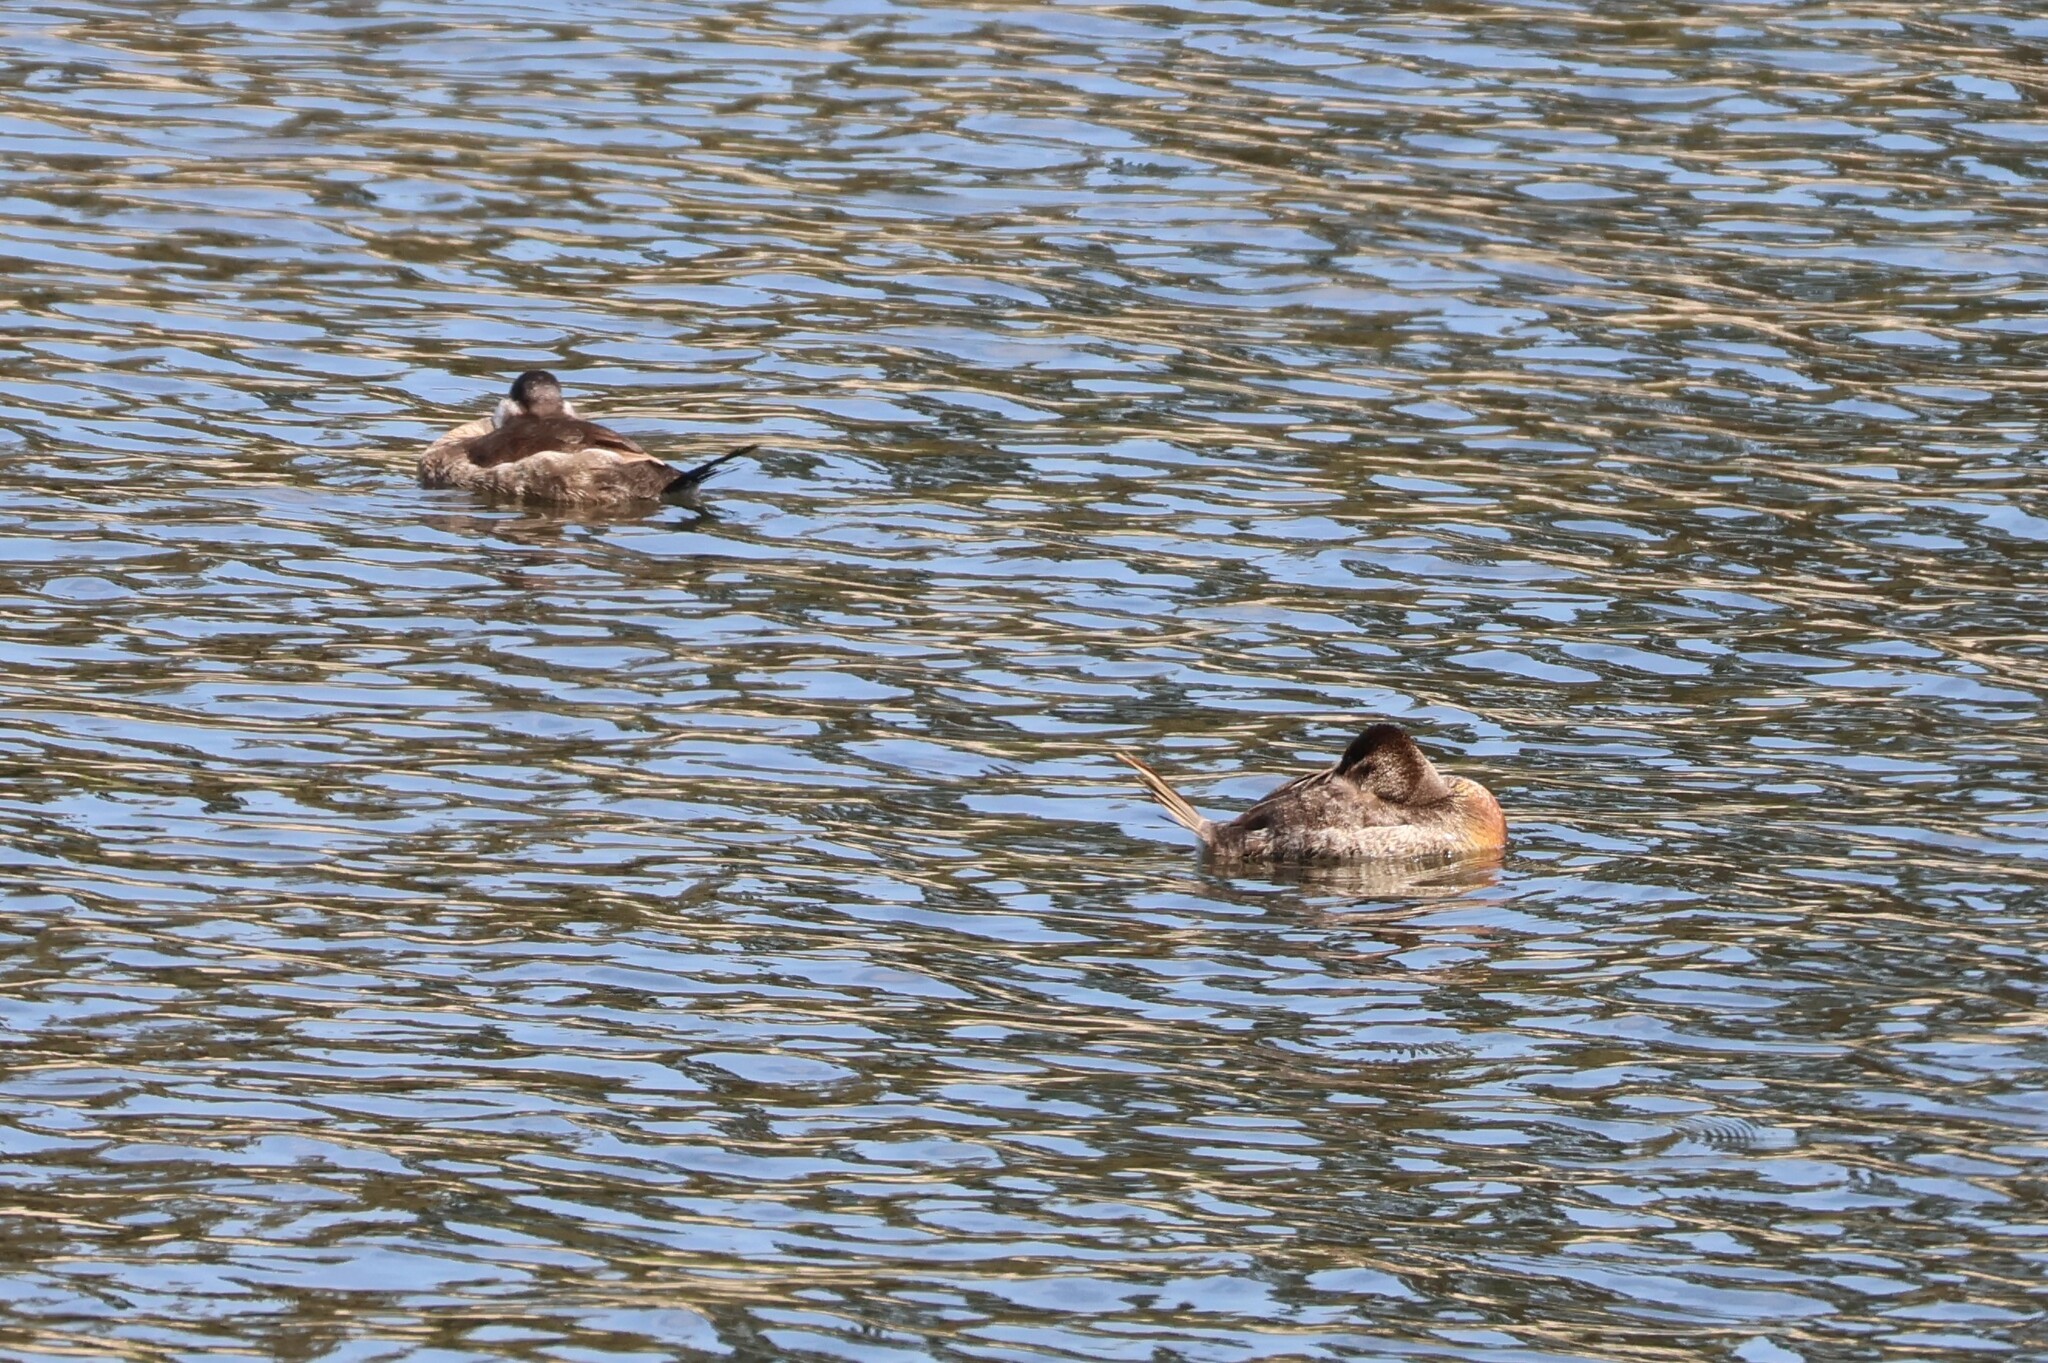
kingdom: Animalia
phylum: Chordata
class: Aves
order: Anseriformes
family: Anatidae
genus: Oxyura
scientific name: Oxyura jamaicensis
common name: Ruddy duck
